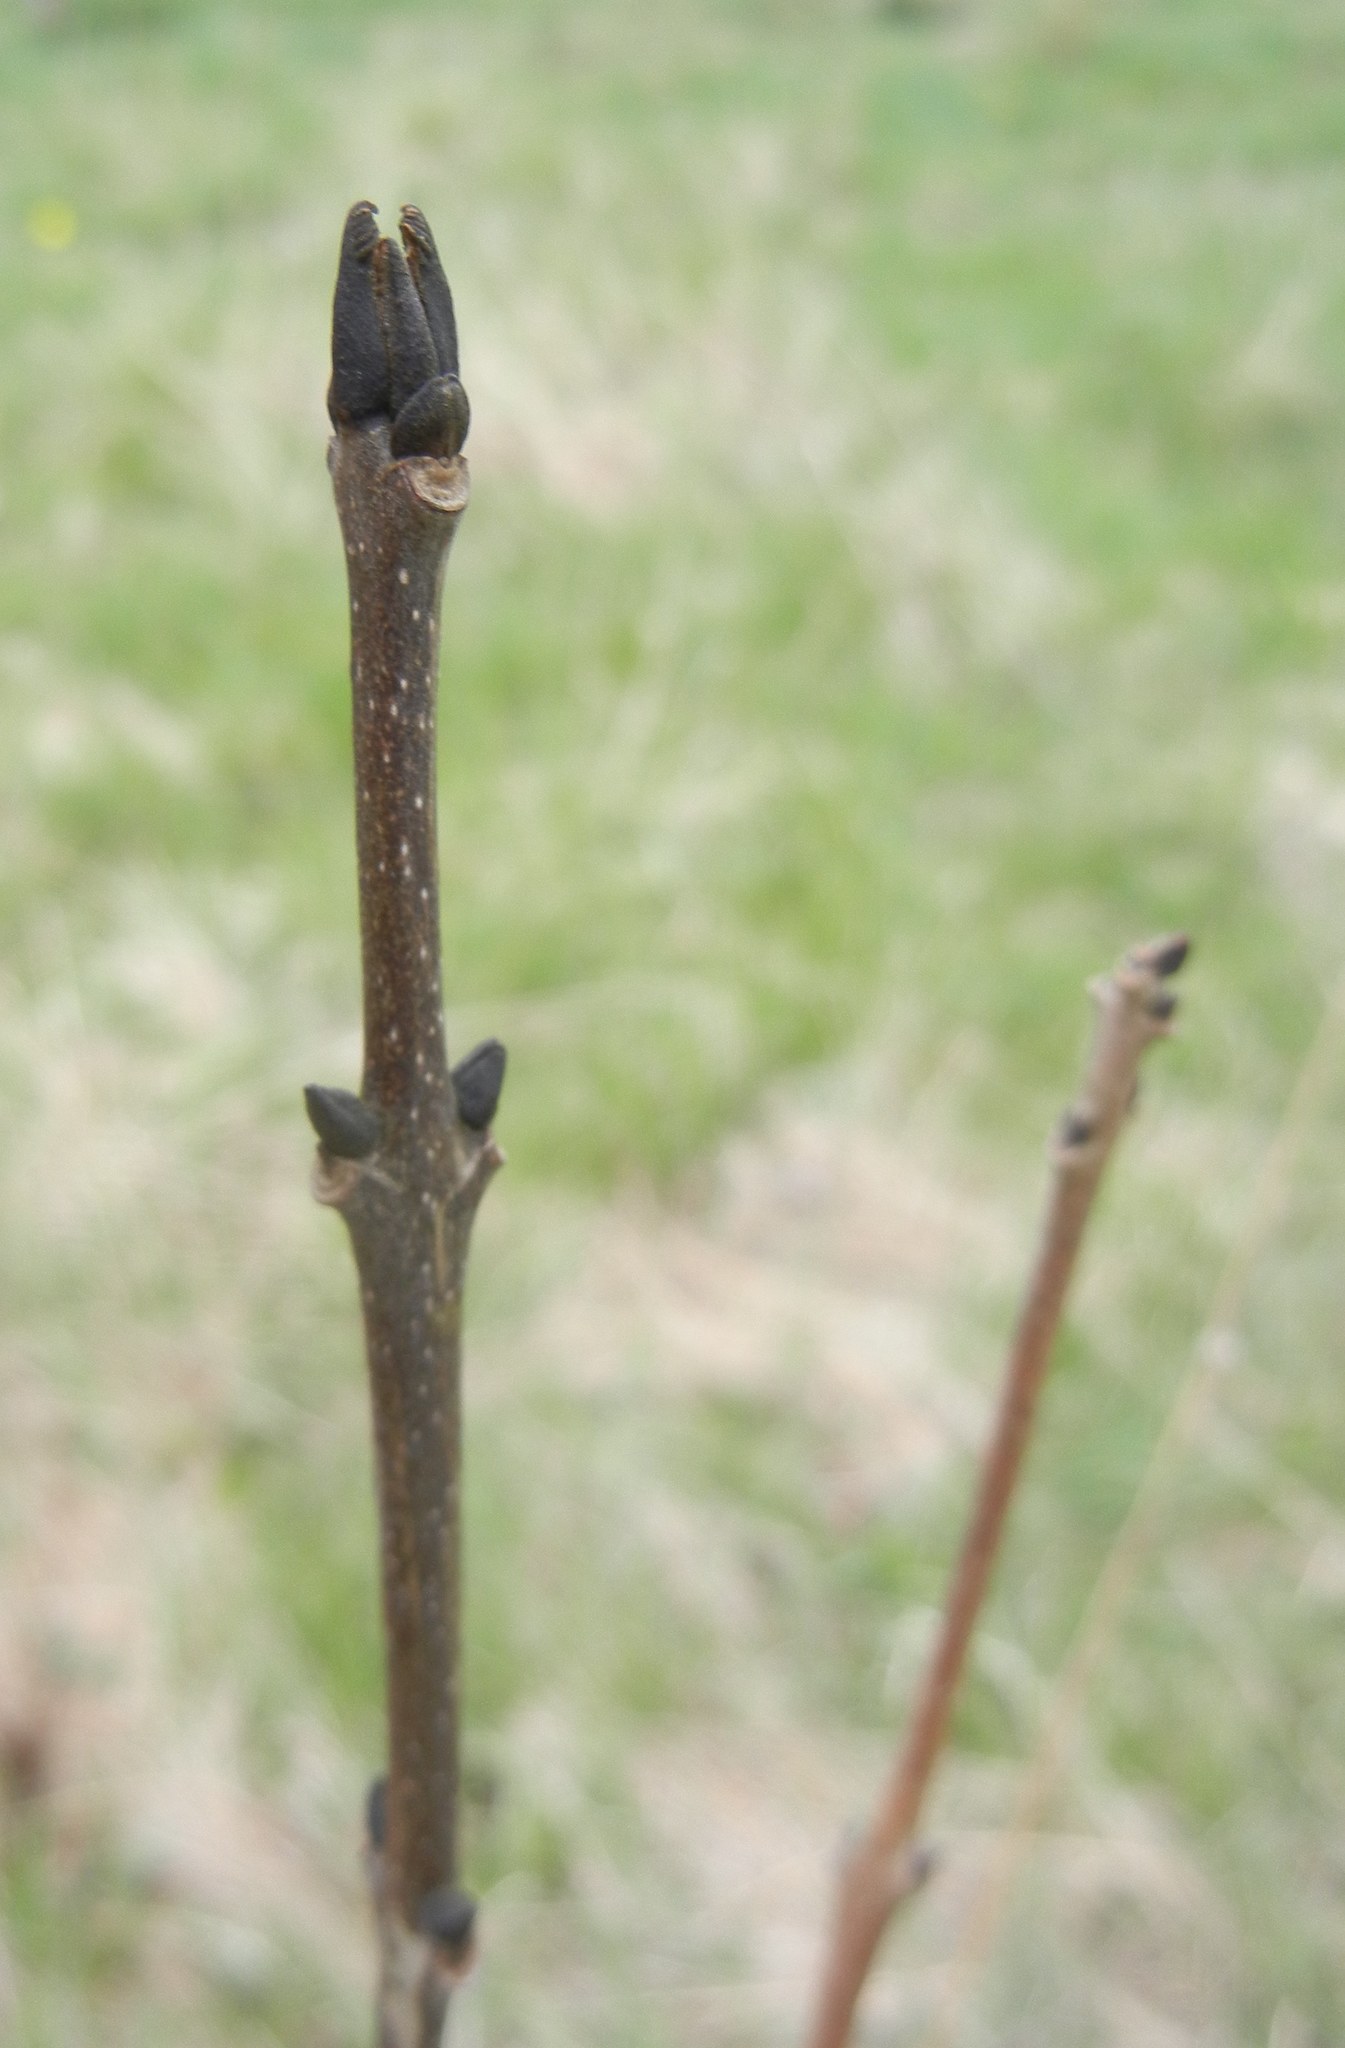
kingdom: Plantae
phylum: Tracheophyta
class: Magnoliopsida
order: Lamiales
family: Oleaceae
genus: Fraxinus
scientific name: Fraxinus excelsior
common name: European ash
